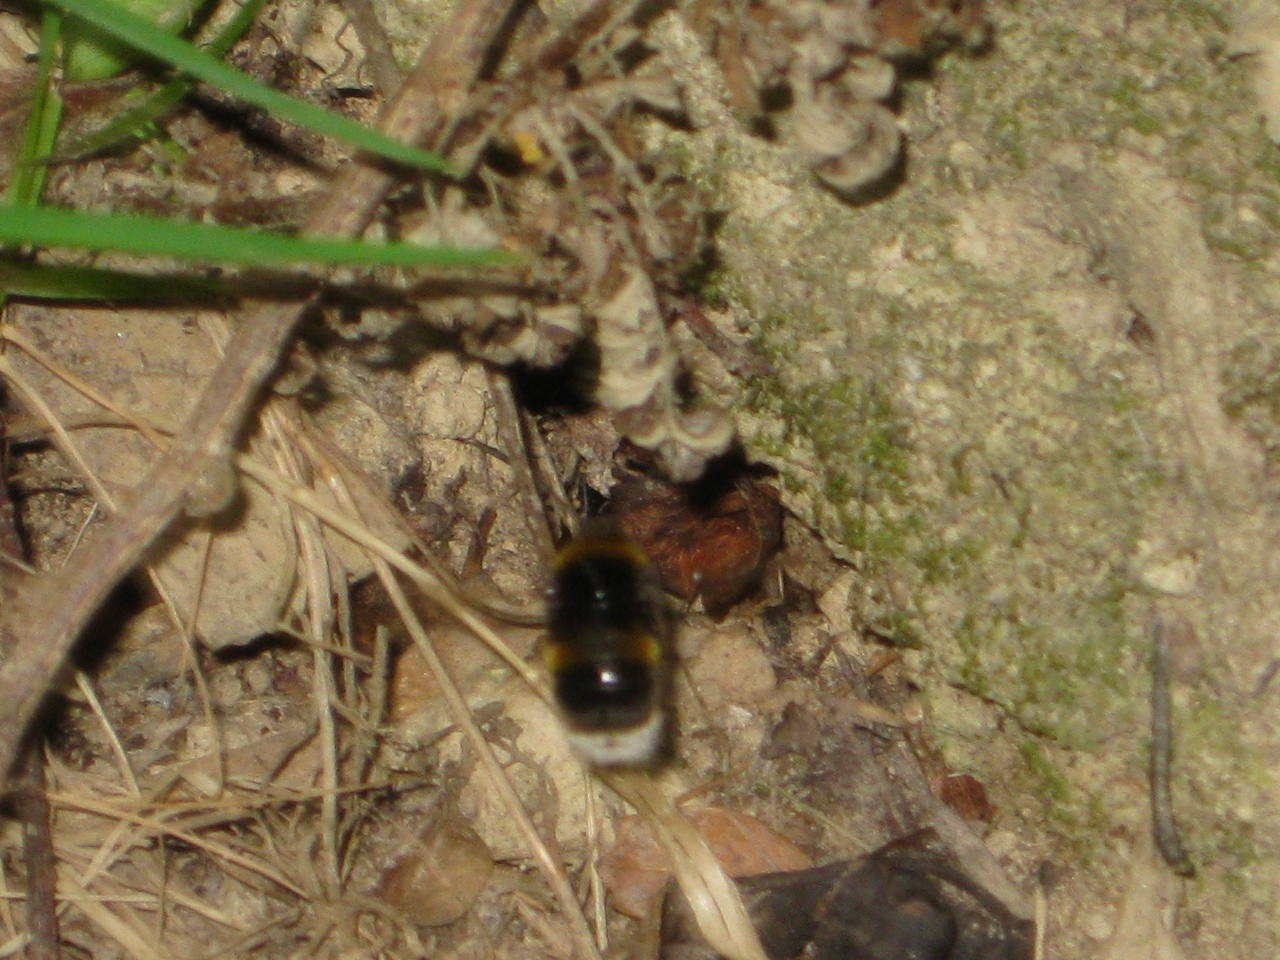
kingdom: Animalia
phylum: Arthropoda
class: Insecta
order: Hymenoptera
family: Apidae
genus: Bombus
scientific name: Bombus terrestris
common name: Buff-tailed bumblebee
